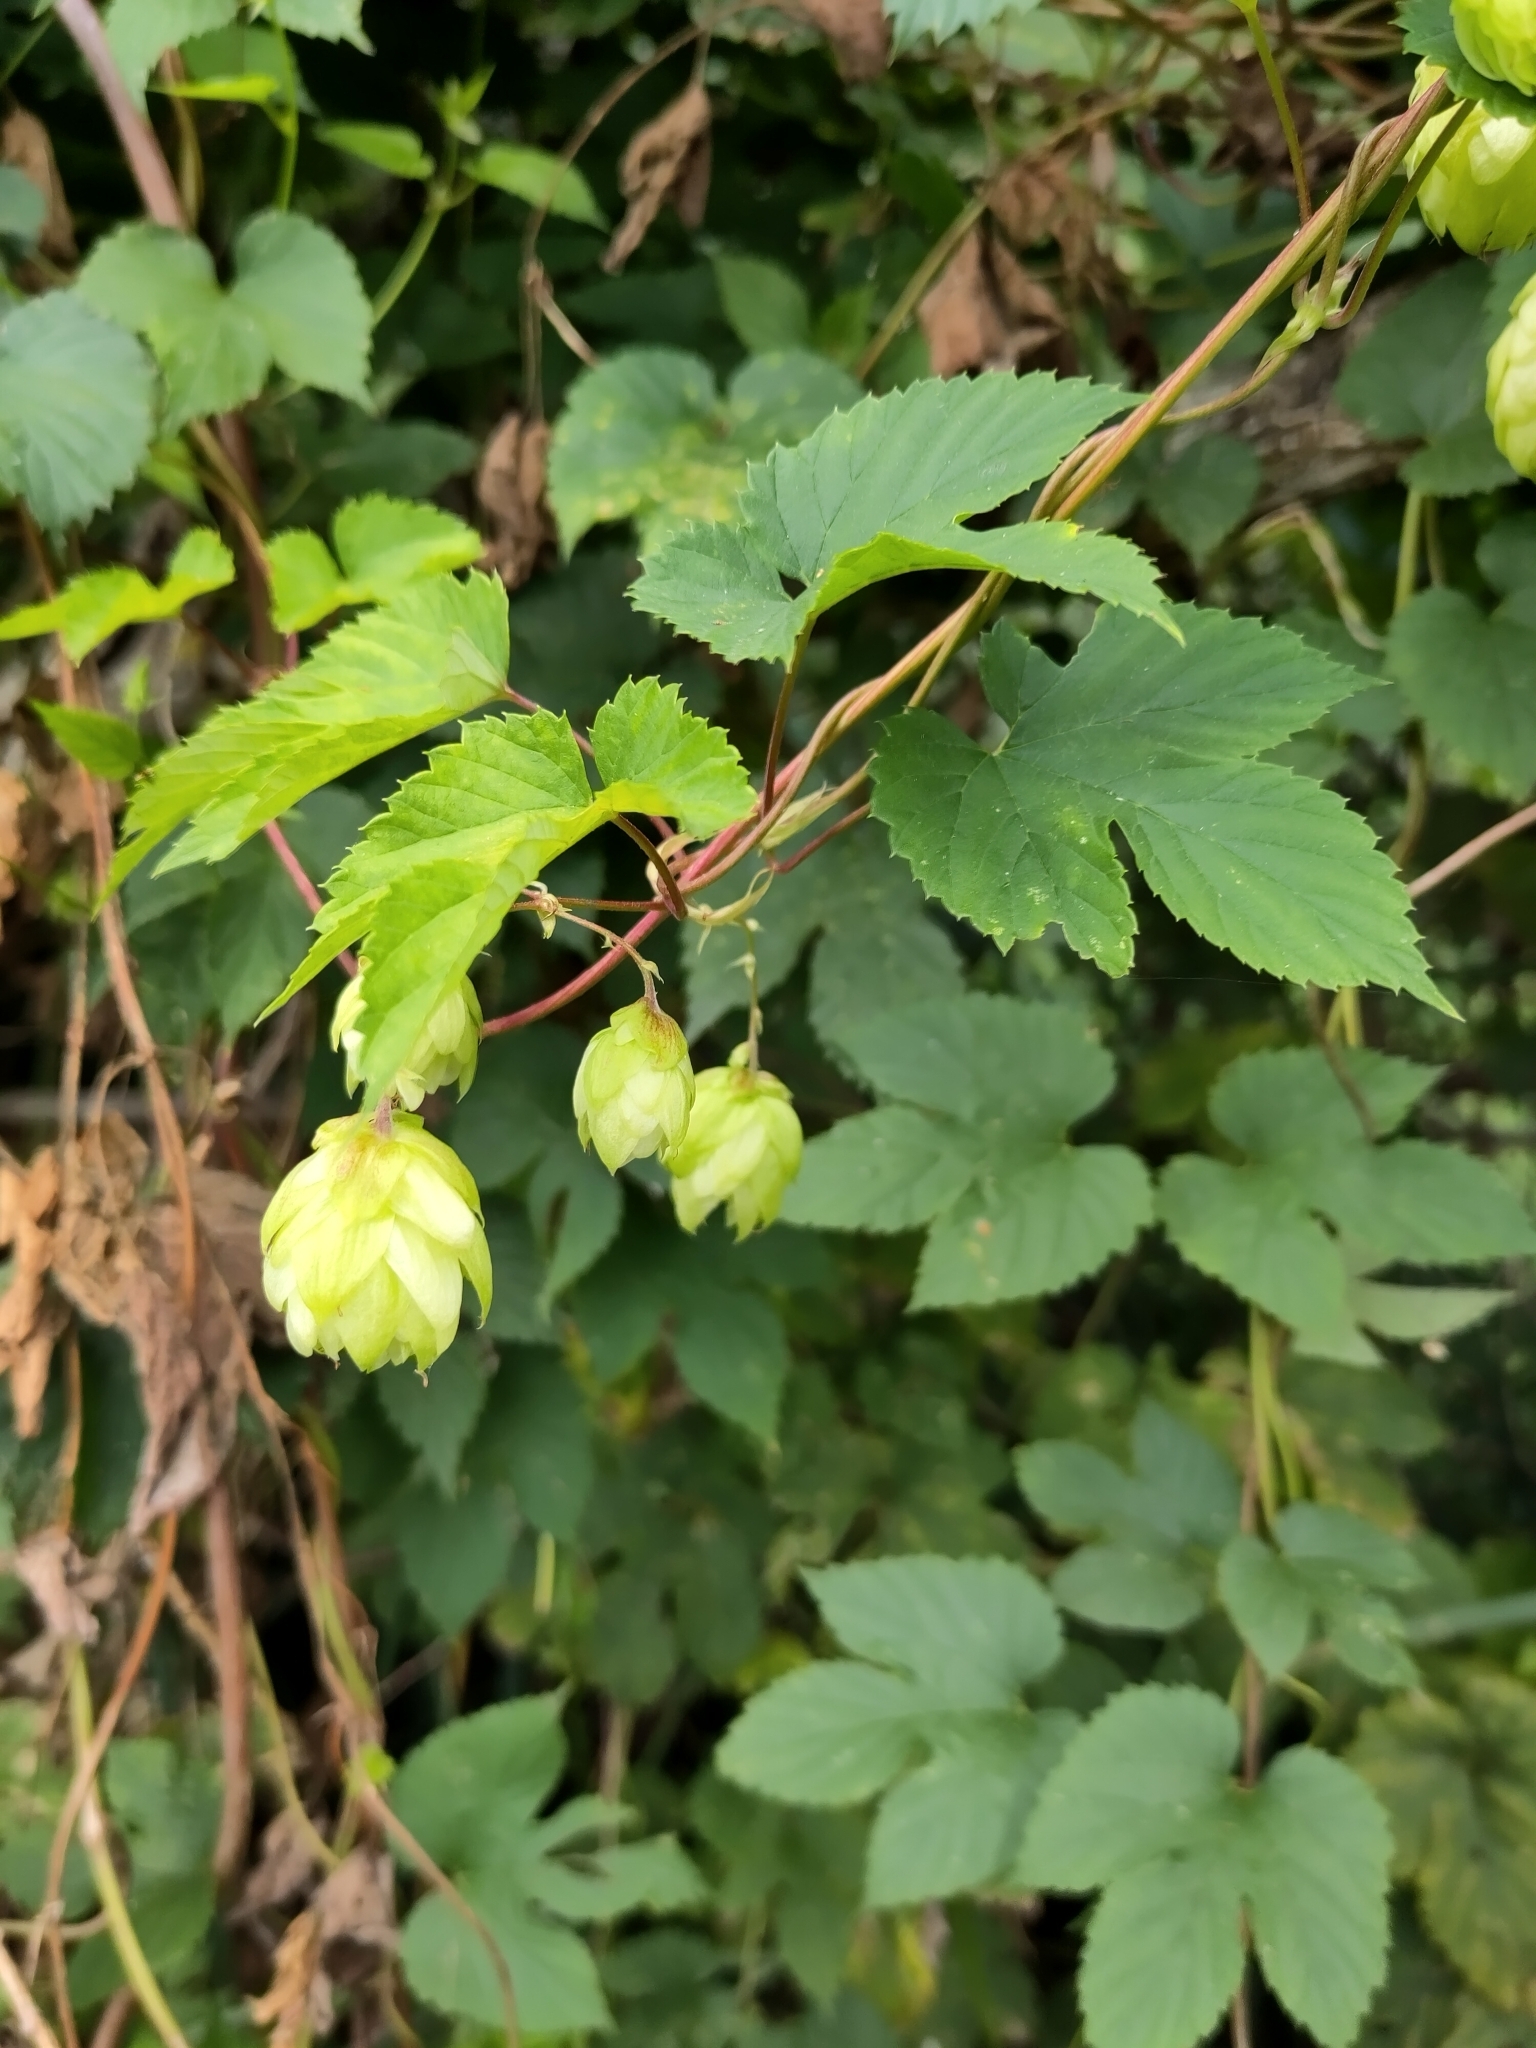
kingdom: Plantae
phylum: Tracheophyta
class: Magnoliopsida
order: Rosales
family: Cannabaceae
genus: Humulus
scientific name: Humulus lupulus
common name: Hop
